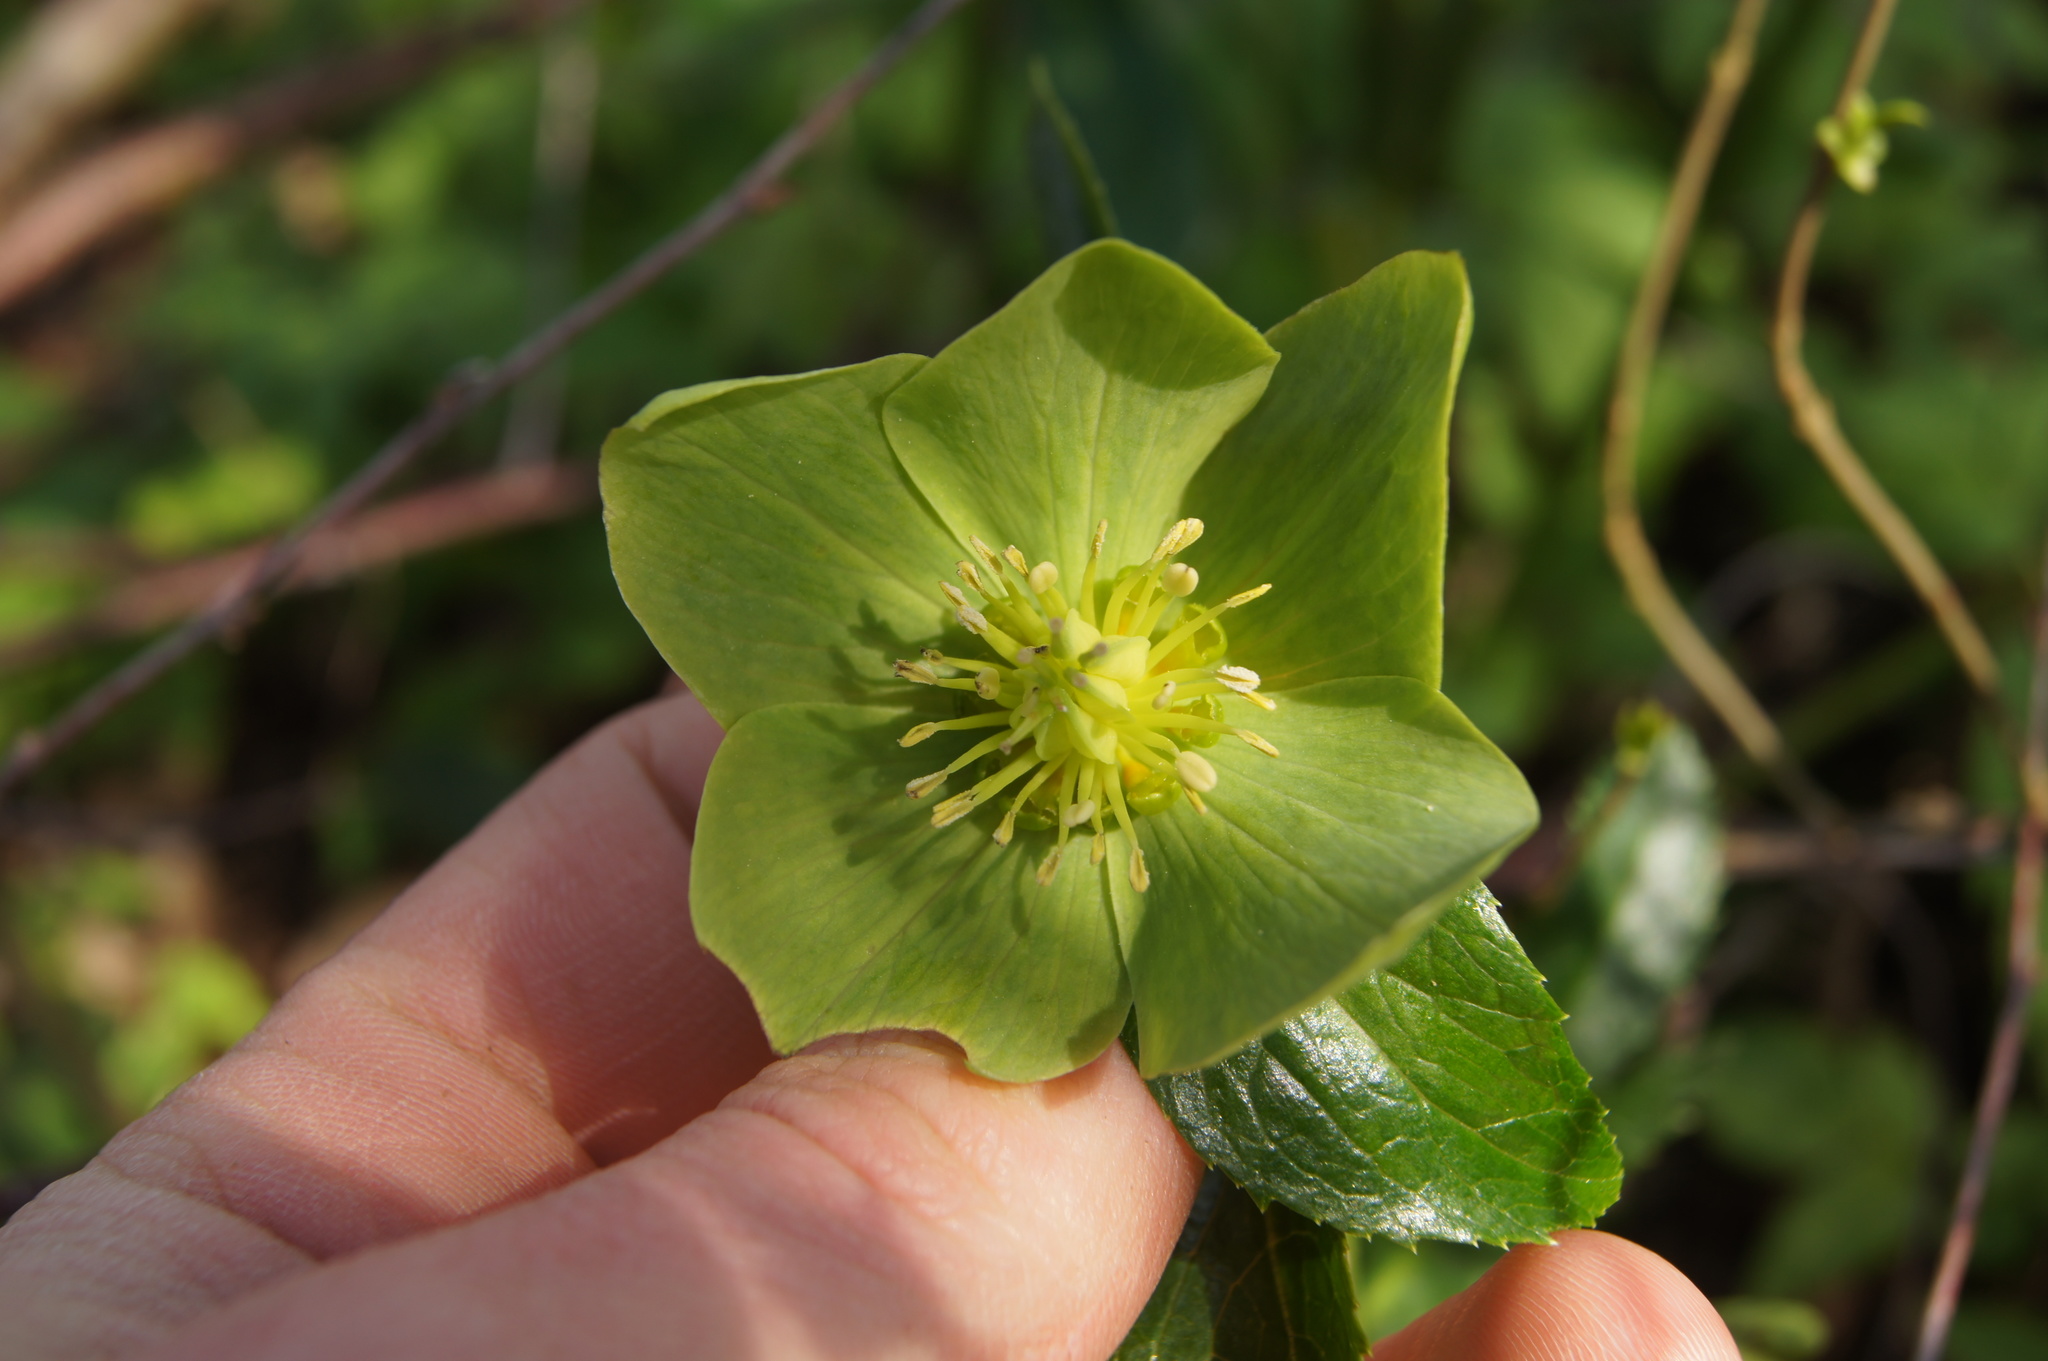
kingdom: Plantae
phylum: Tracheophyta
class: Magnoliopsida
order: Ranunculales
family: Ranunculaceae
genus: Helleborus
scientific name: Helleborus viridis
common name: Green hellebore
